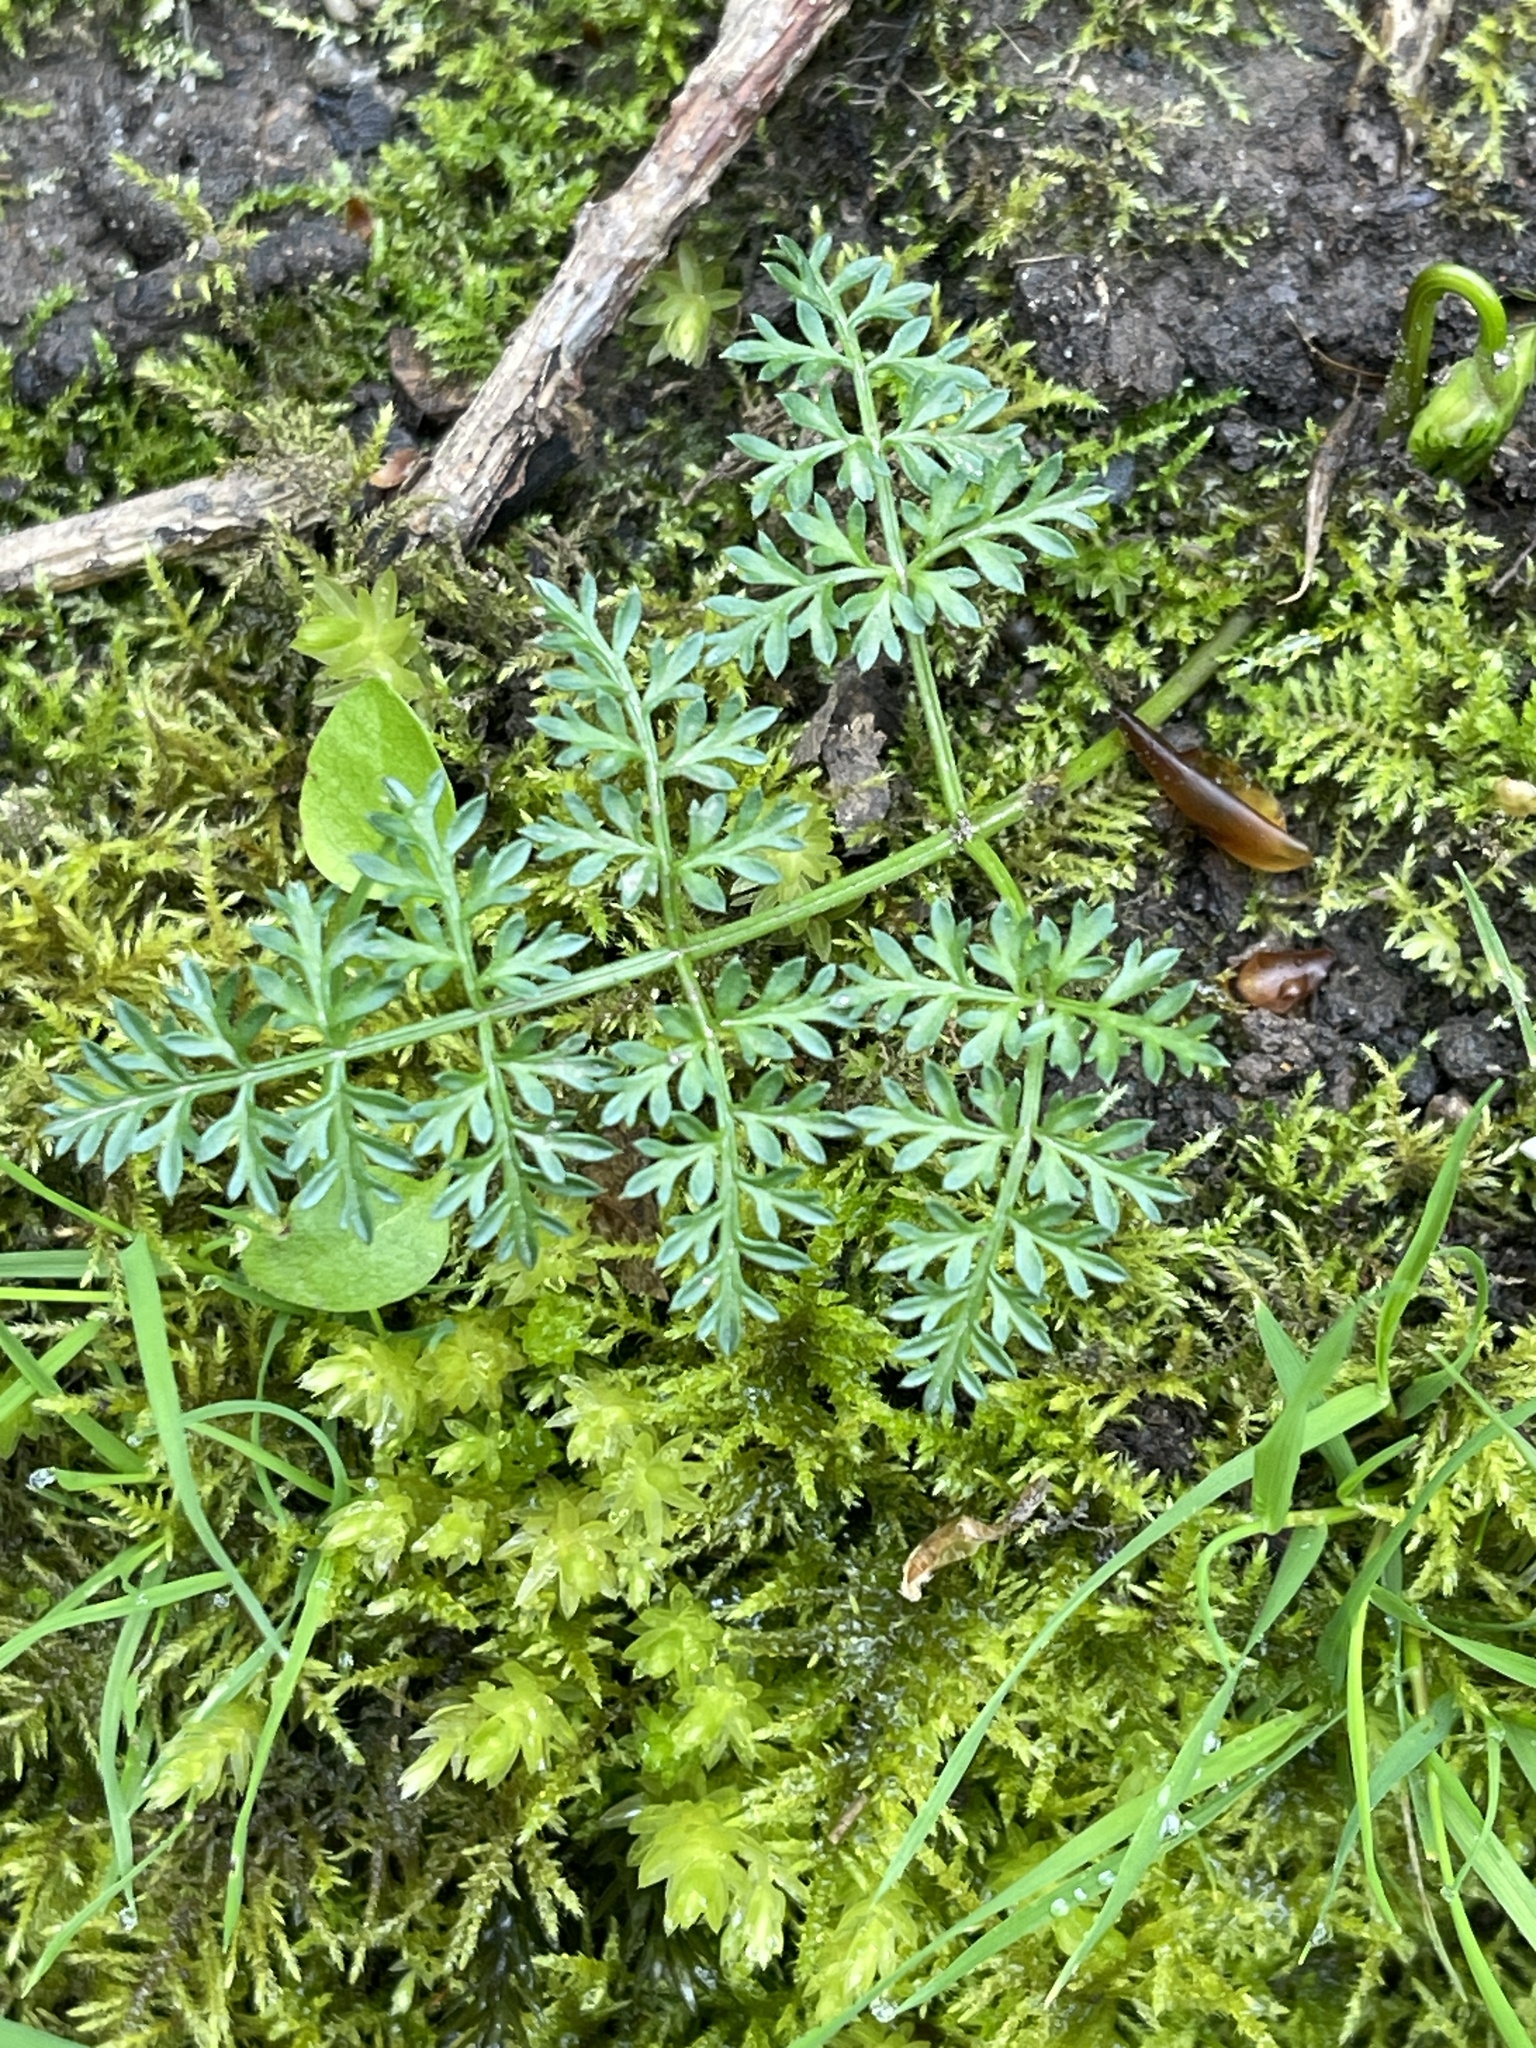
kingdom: Plantae
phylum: Tracheophyta
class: Magnoliopsida
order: Apiales
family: Apiaceae
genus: Conopodium
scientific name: Conopodium majus
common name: Pignut
